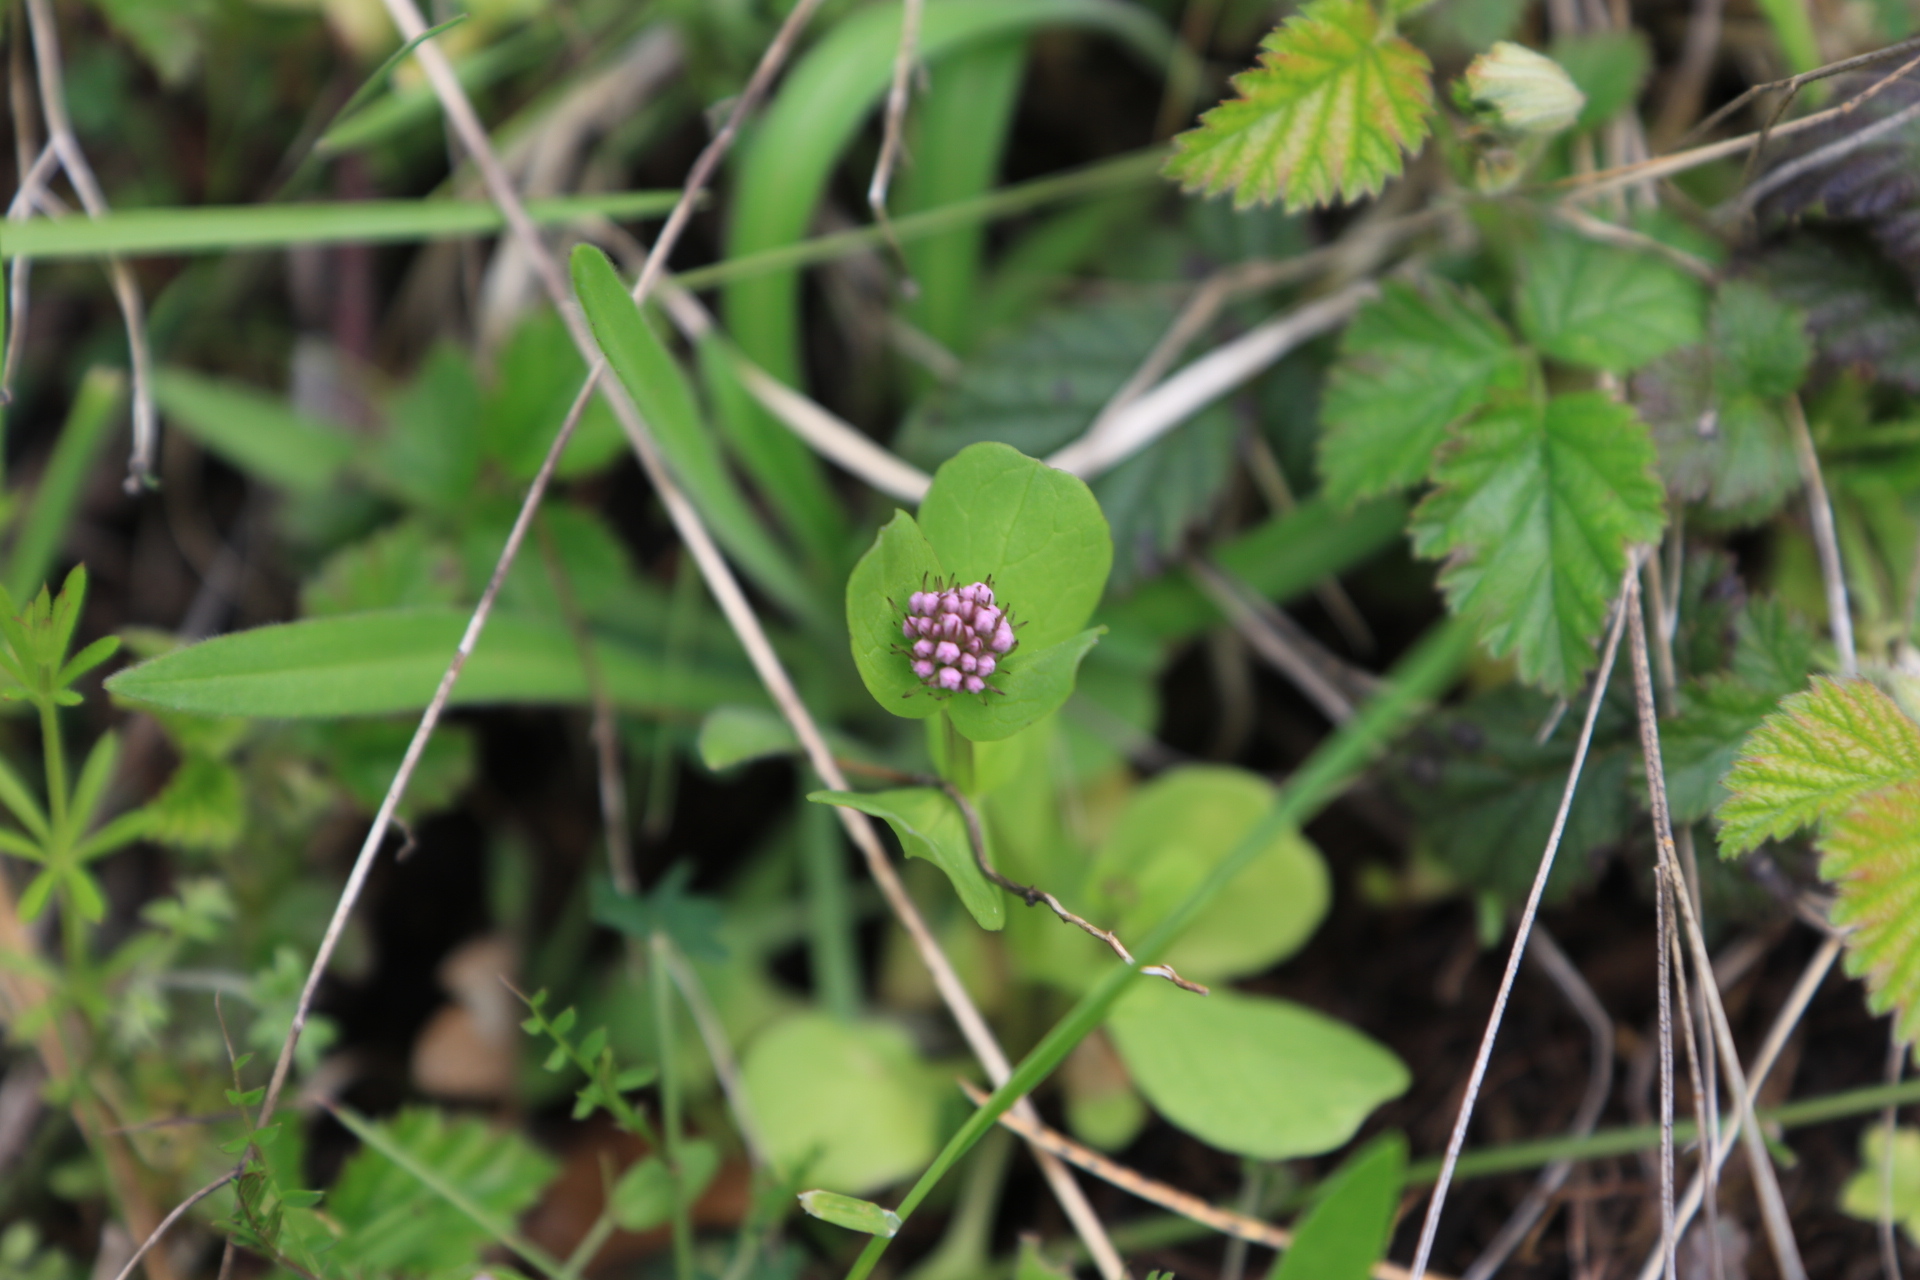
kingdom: Plantae
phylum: Tracheophyta
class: Magnoliopsida
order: Dipsacales
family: Caprifoliaceae
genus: Plectritis
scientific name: Plectritis congesta
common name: Pink plectritis
